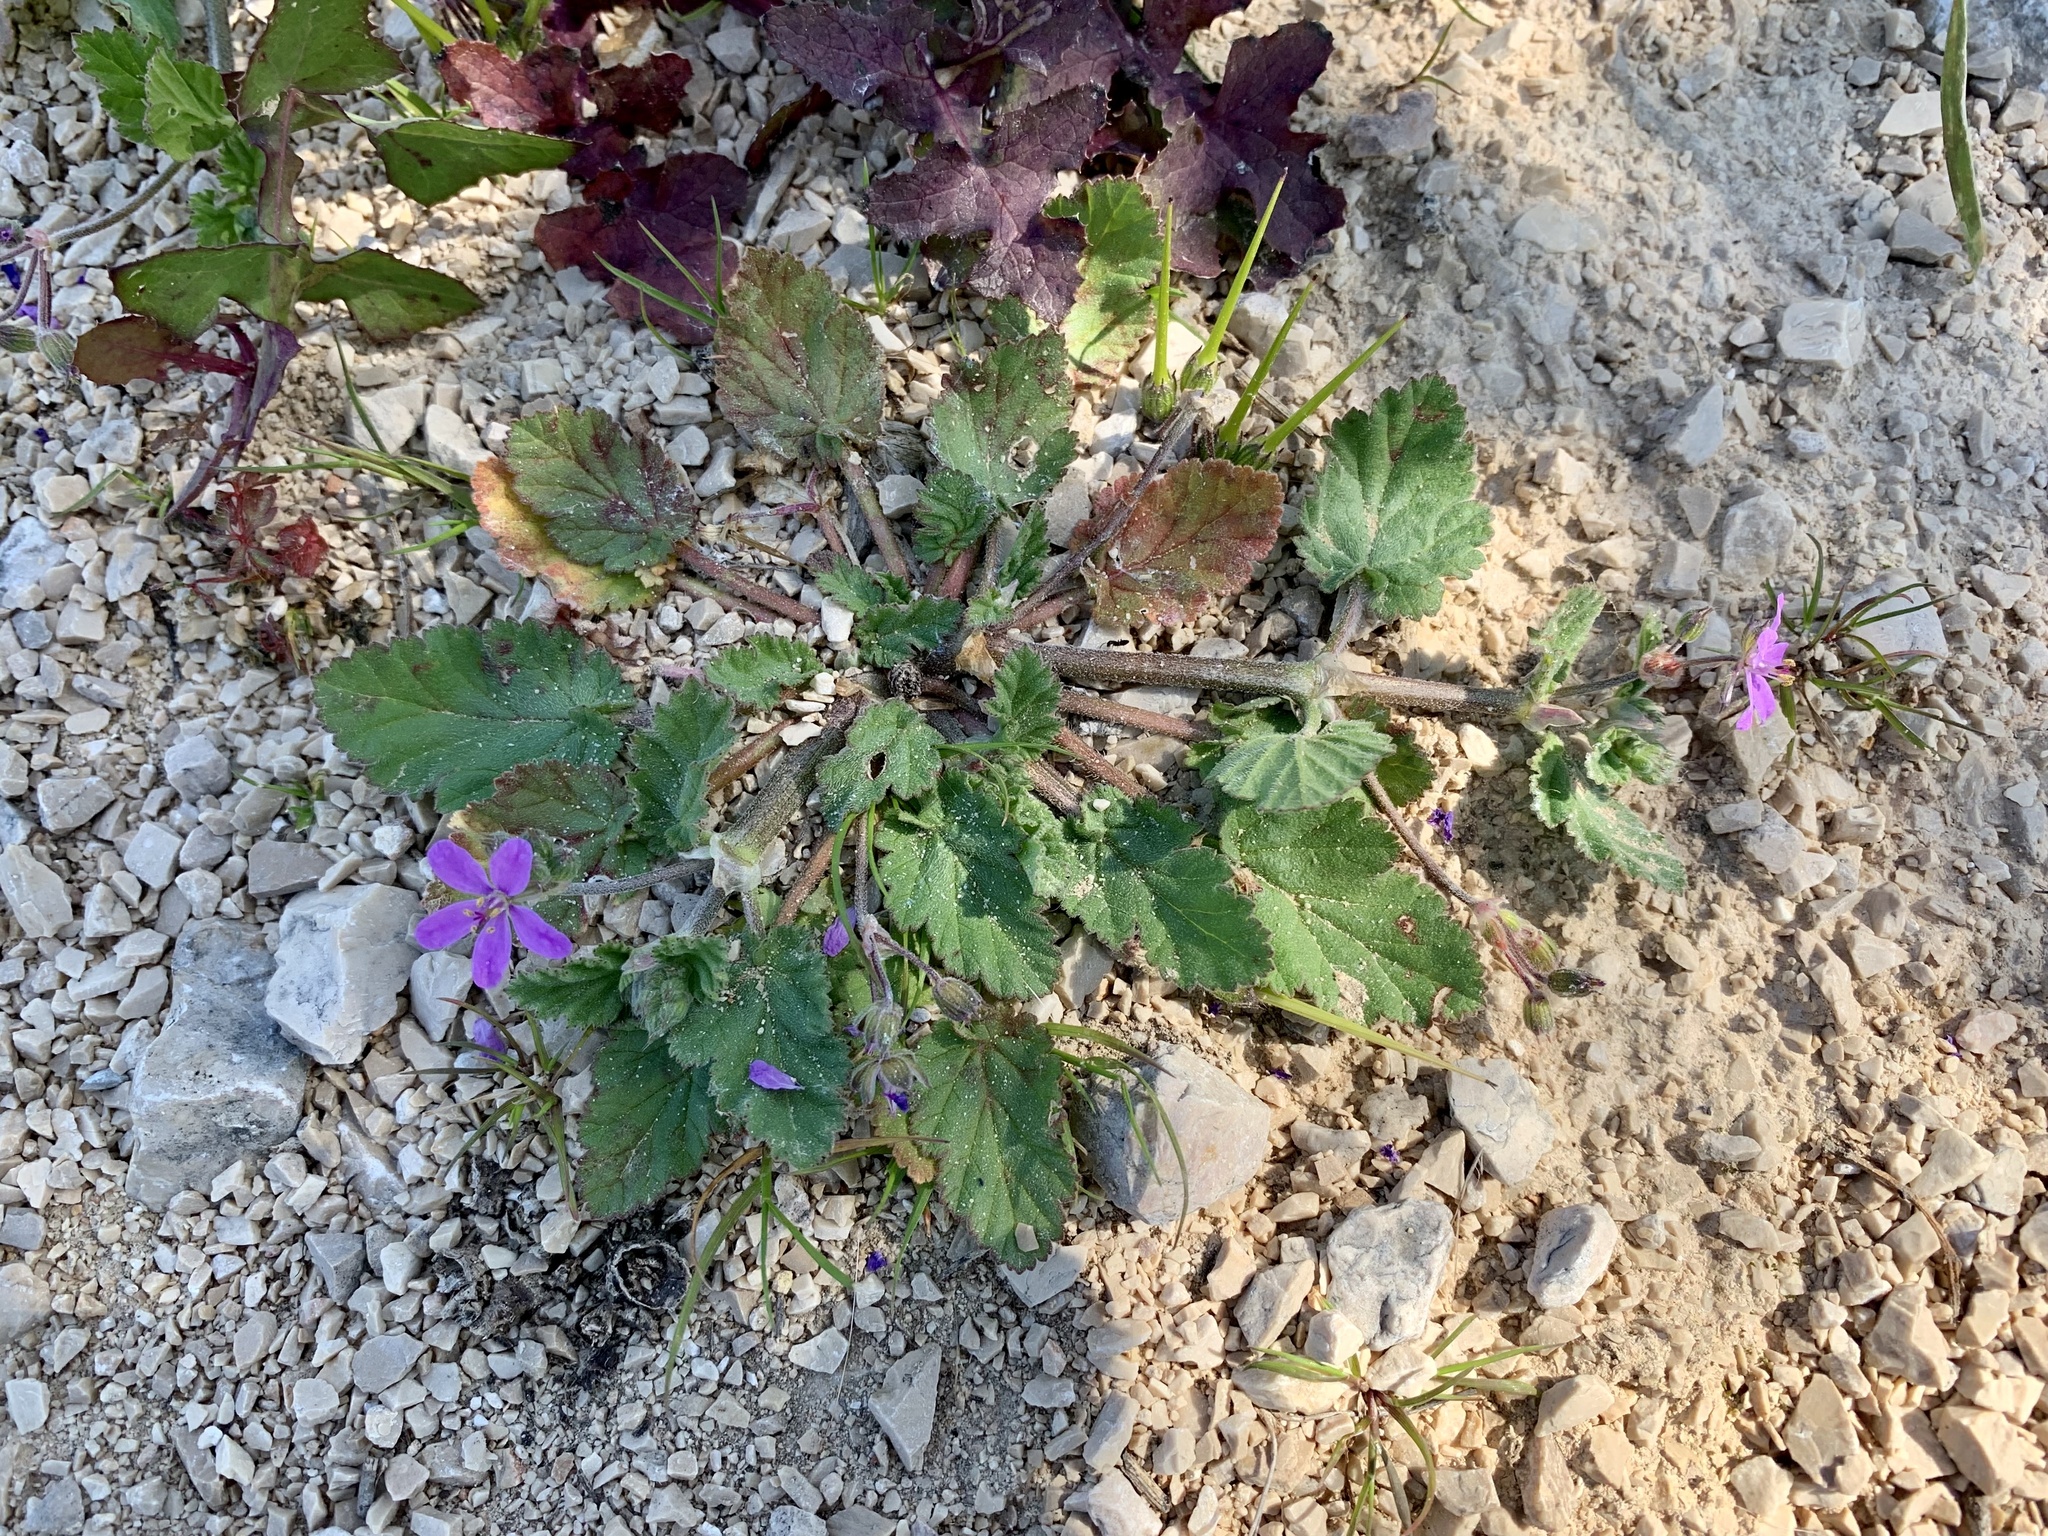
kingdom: Plantae
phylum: Tracheophyta
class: Magnoliopsida
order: Geraniales
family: Geraniaceae
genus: Erodium
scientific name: Erodium malacoides
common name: Soft stork's-bill
